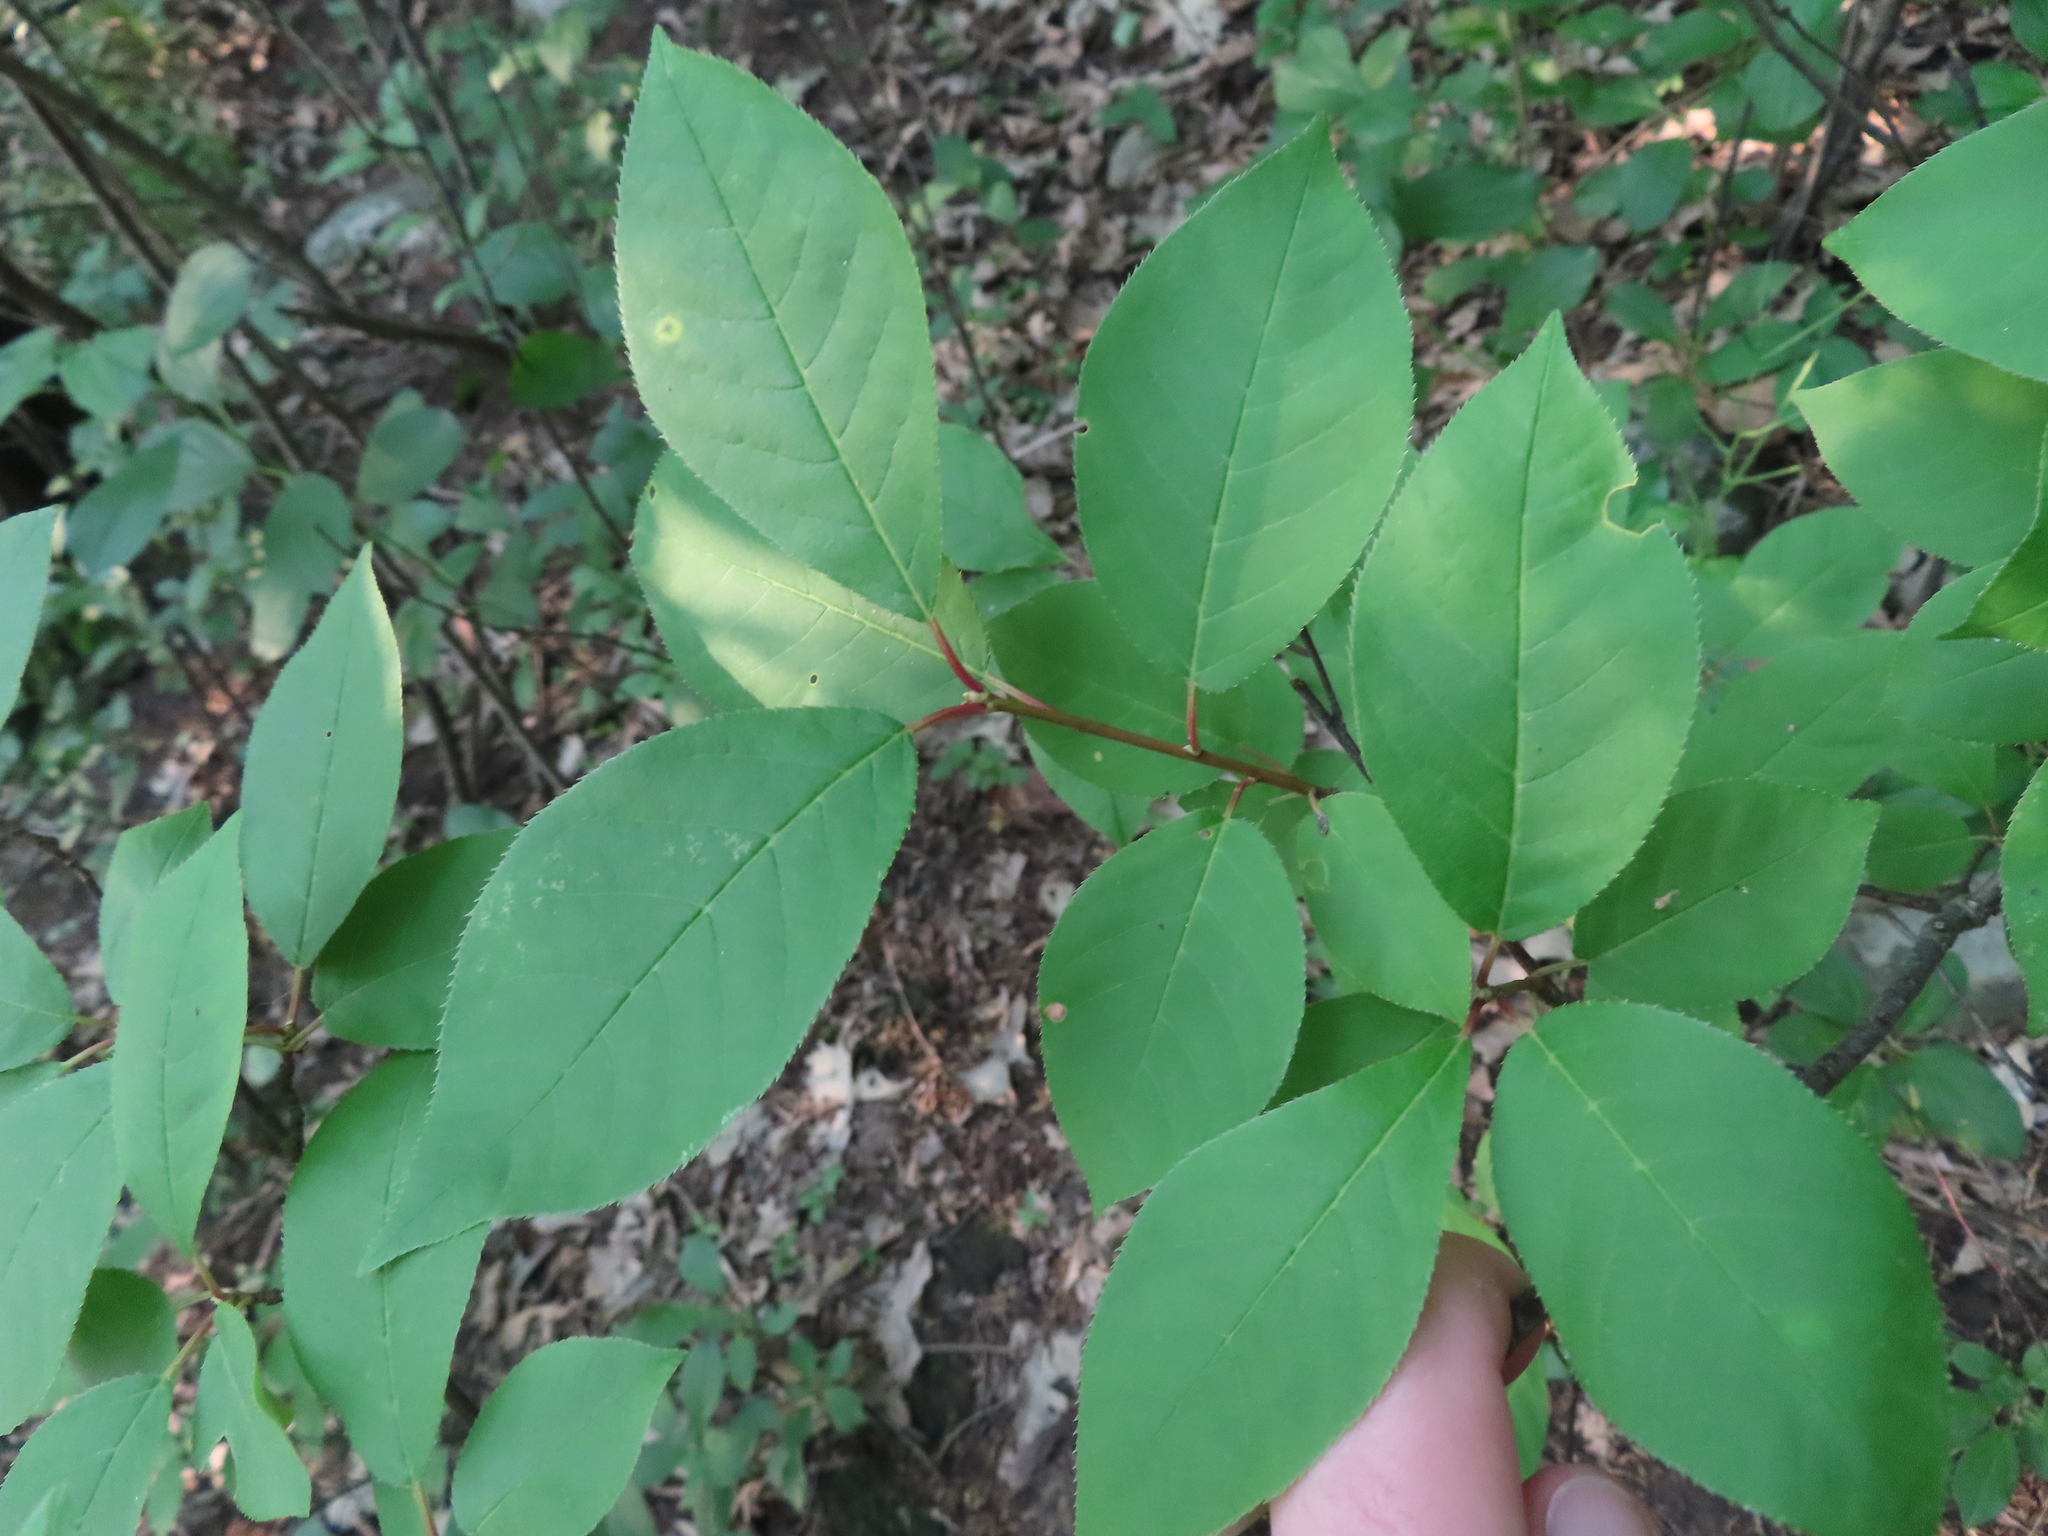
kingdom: Plantae
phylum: Tracheophyta
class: Magnoliopsida
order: Rosales
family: Rosaceae
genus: Prunus
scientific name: Prunus virginiana
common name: Chokecherry
